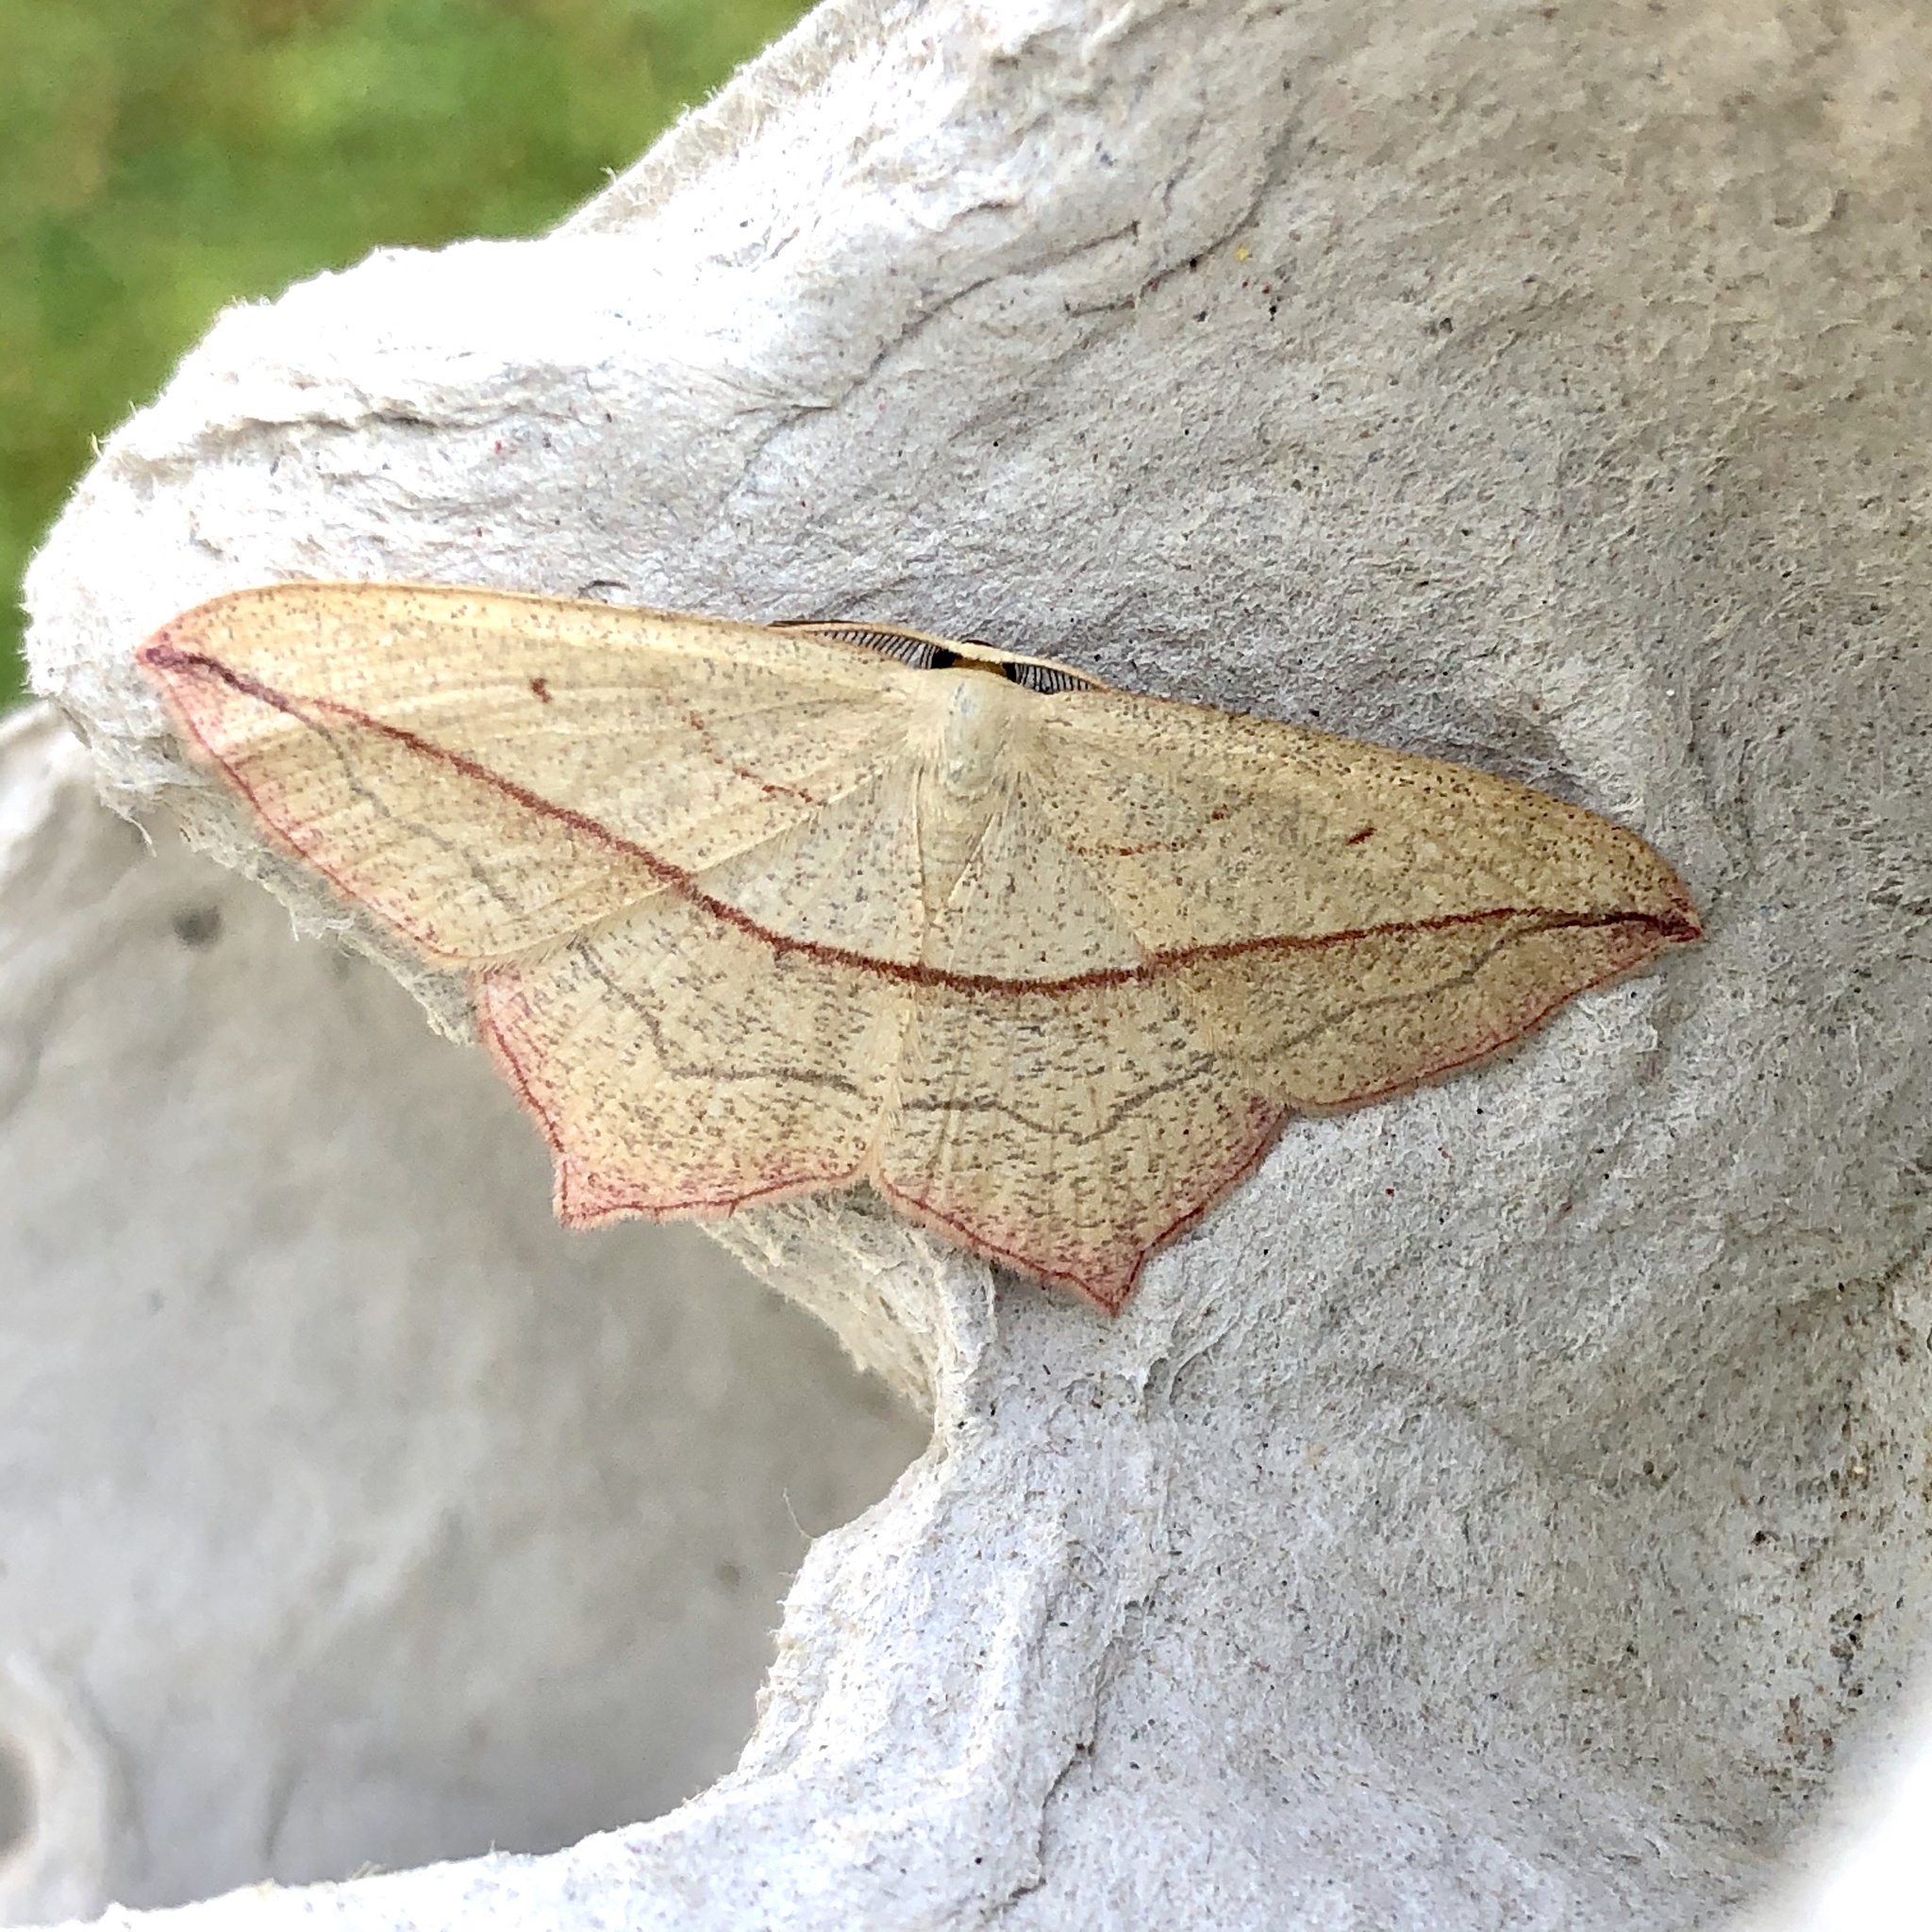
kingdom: Animalia
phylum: Arthropoda
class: Insecta
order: Lepidoptera
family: Geometridae
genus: Timandra
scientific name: Timandra comae
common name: Blood-vein
